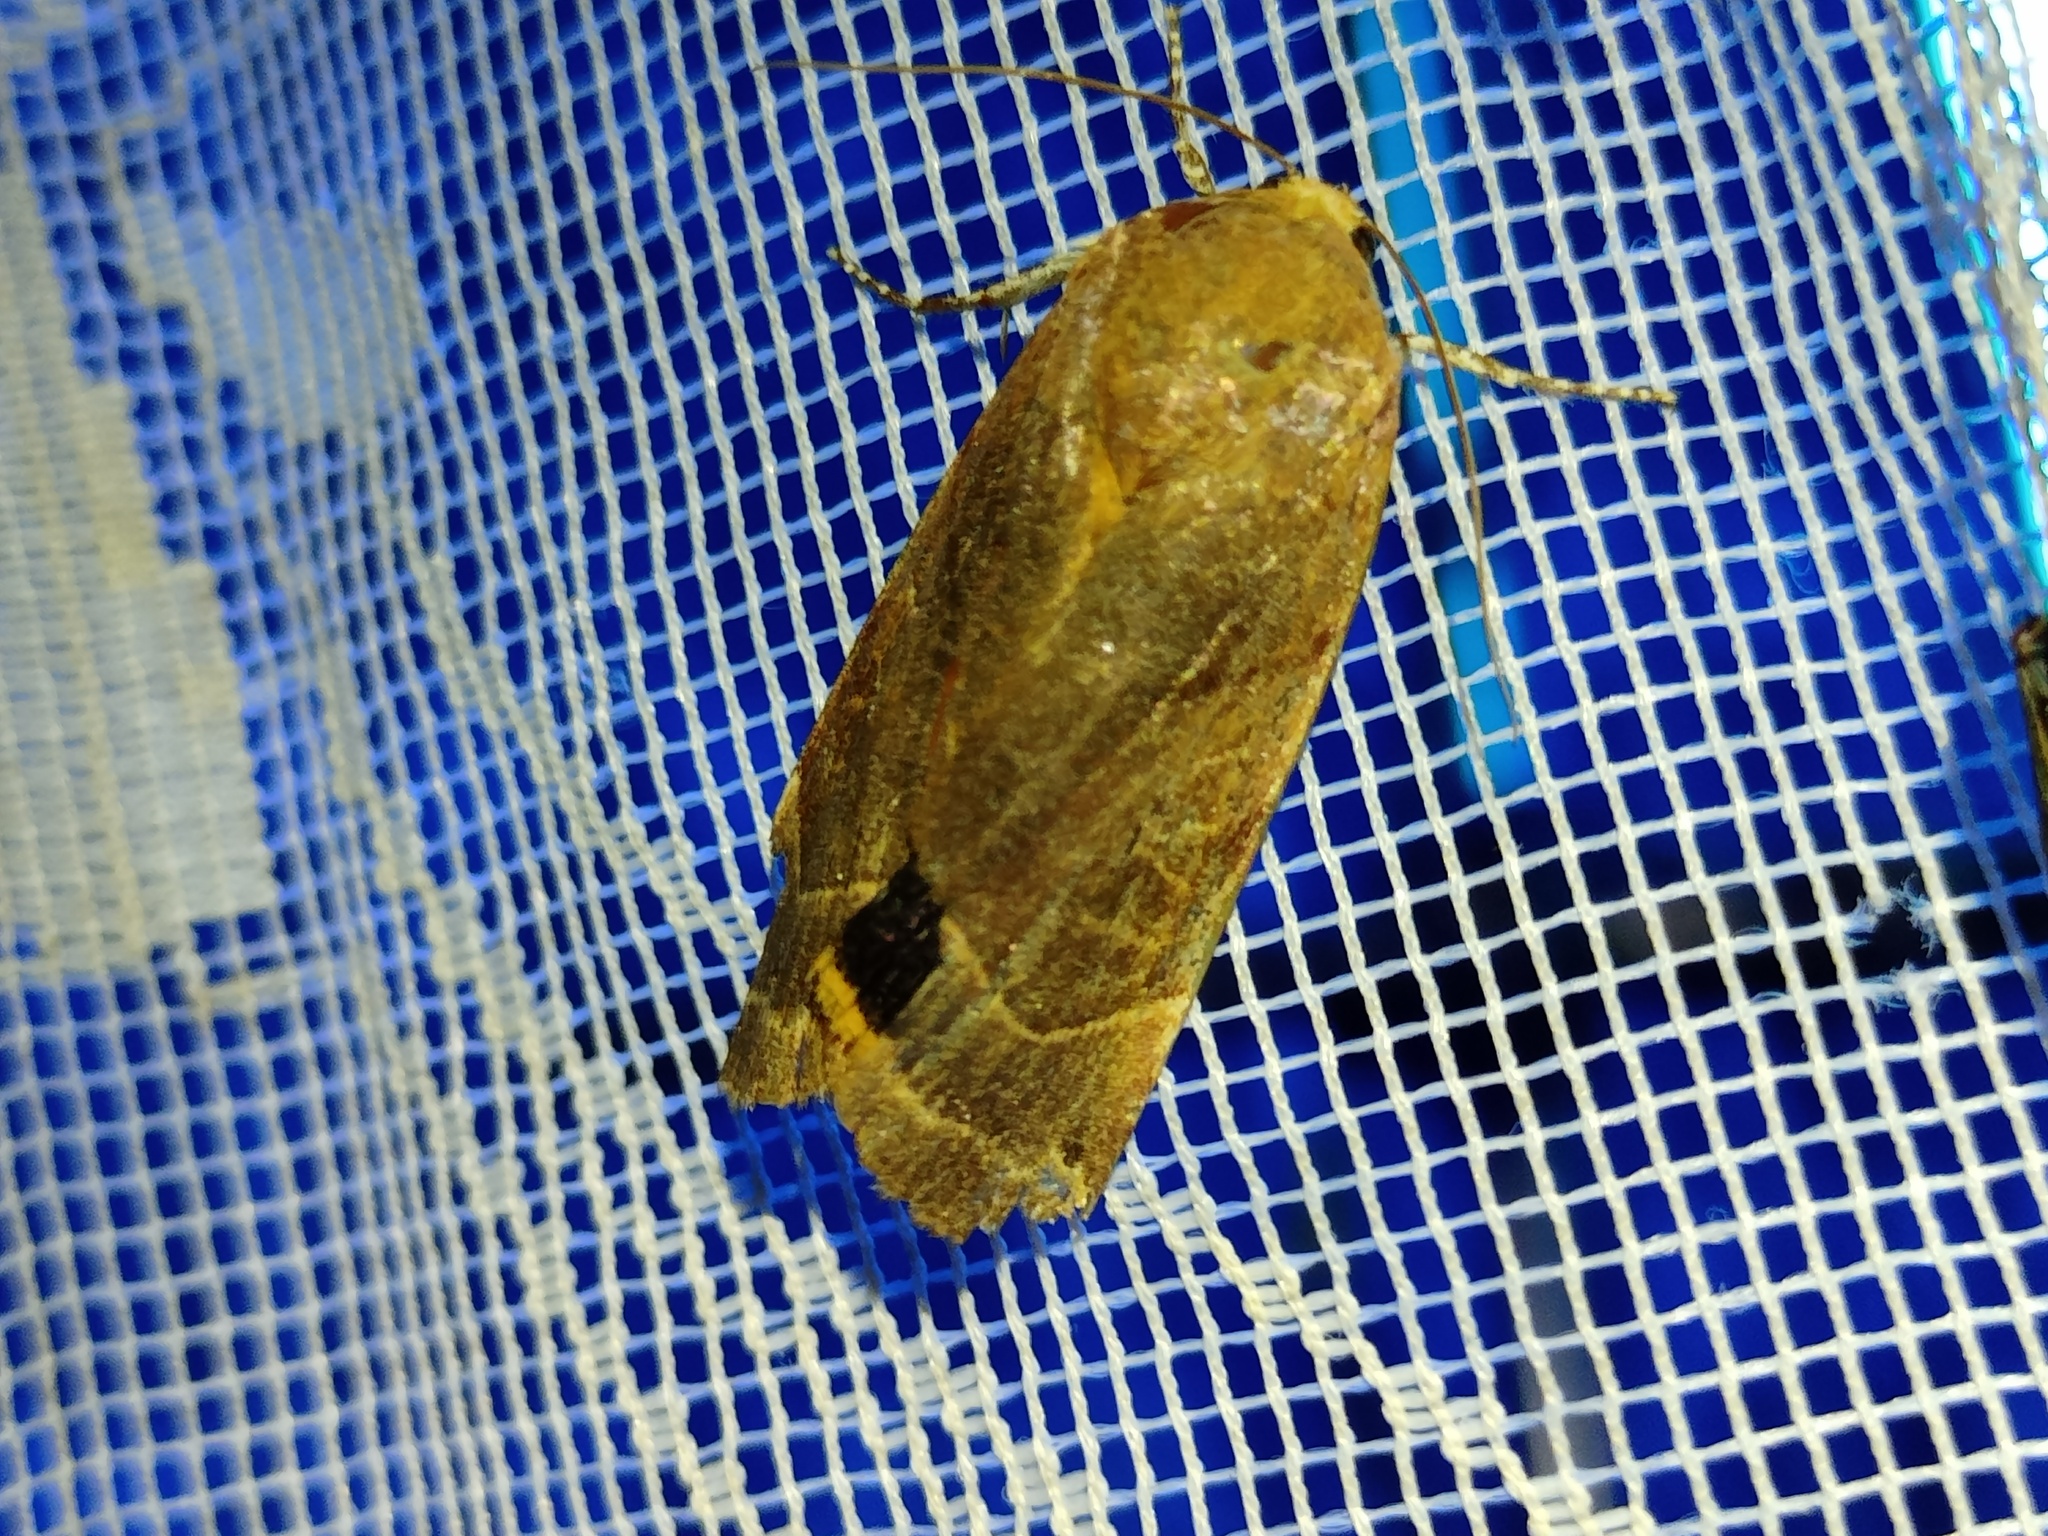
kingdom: Animalia
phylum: Arthropoda
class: Insecta
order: Lepidoptera
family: Noctuidae
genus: Noctua
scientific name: Noctua fimbriata
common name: Broad-bordered yellow underwing
